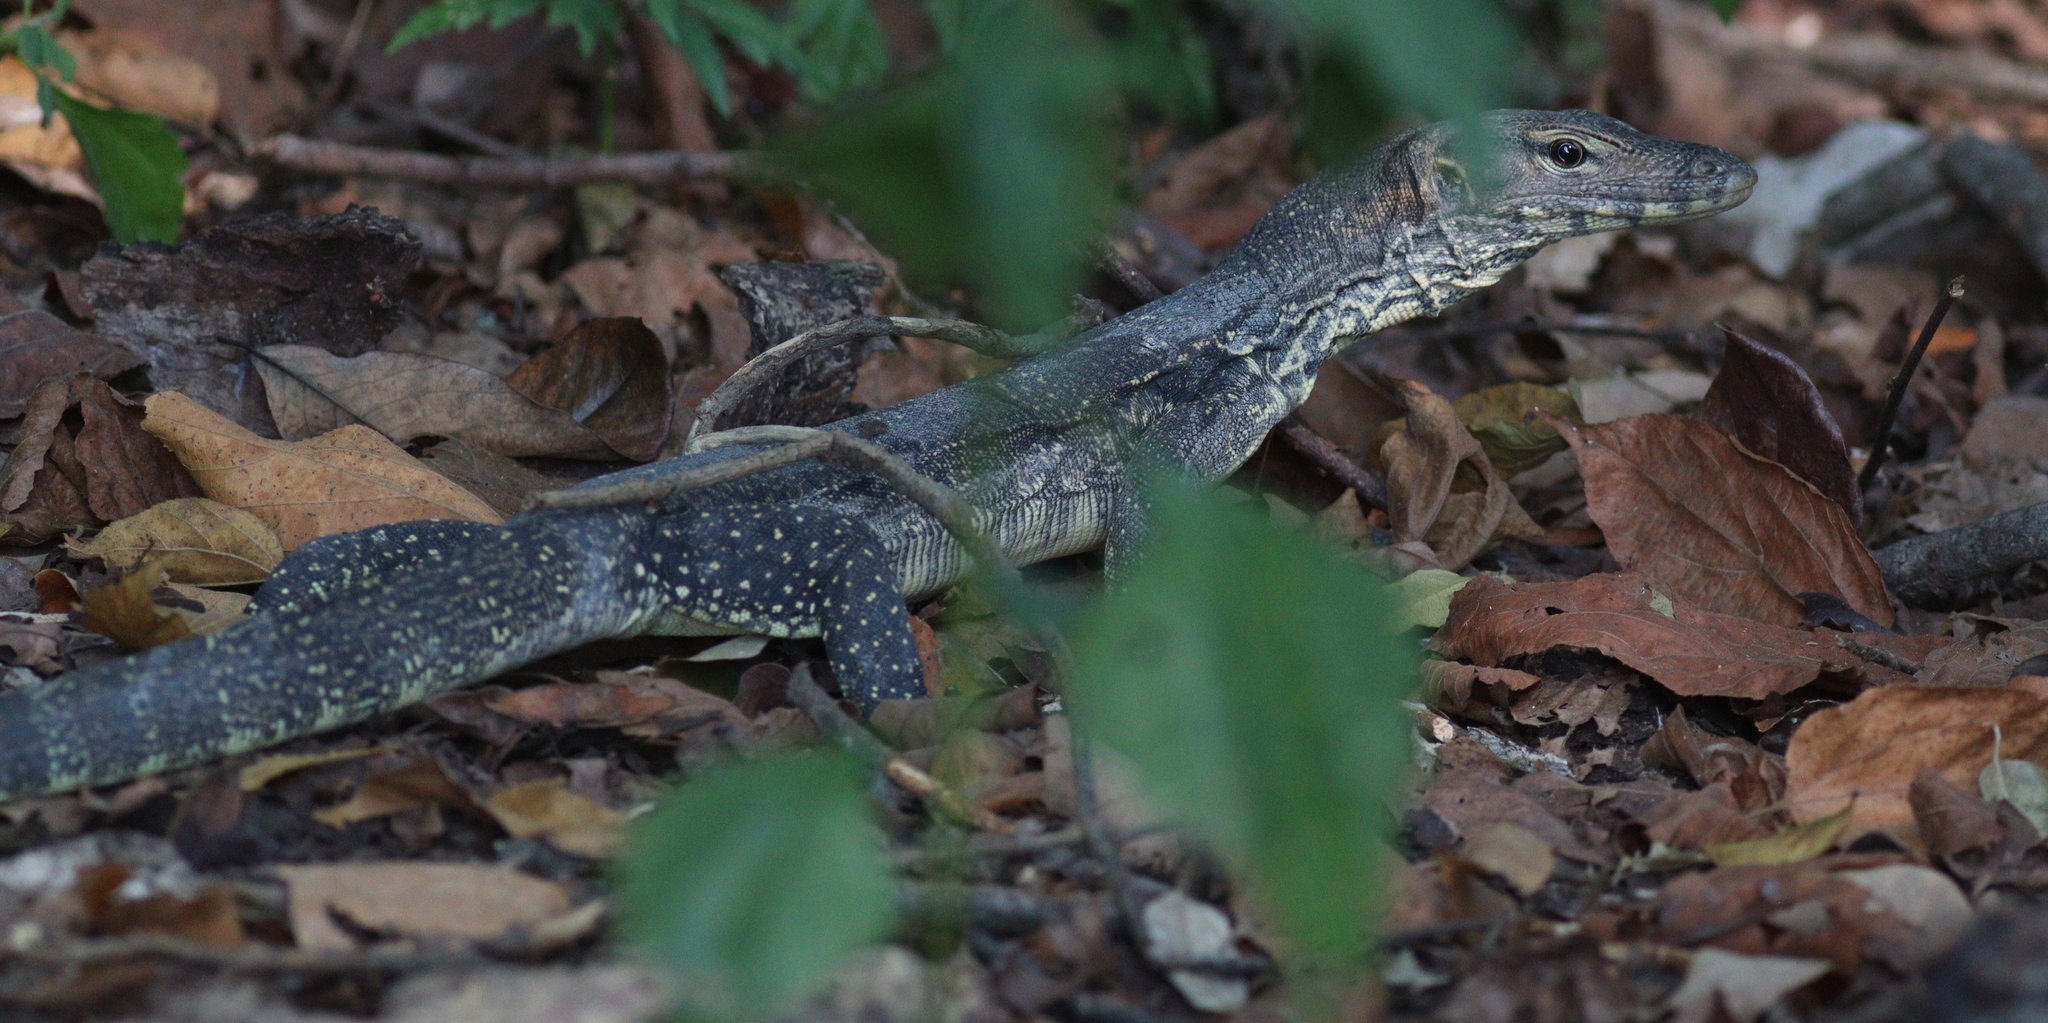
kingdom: Animalia
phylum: Chordata
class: Squamata
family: Varanidae
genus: Varanus
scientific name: Varanus salvator
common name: Common water monitor
